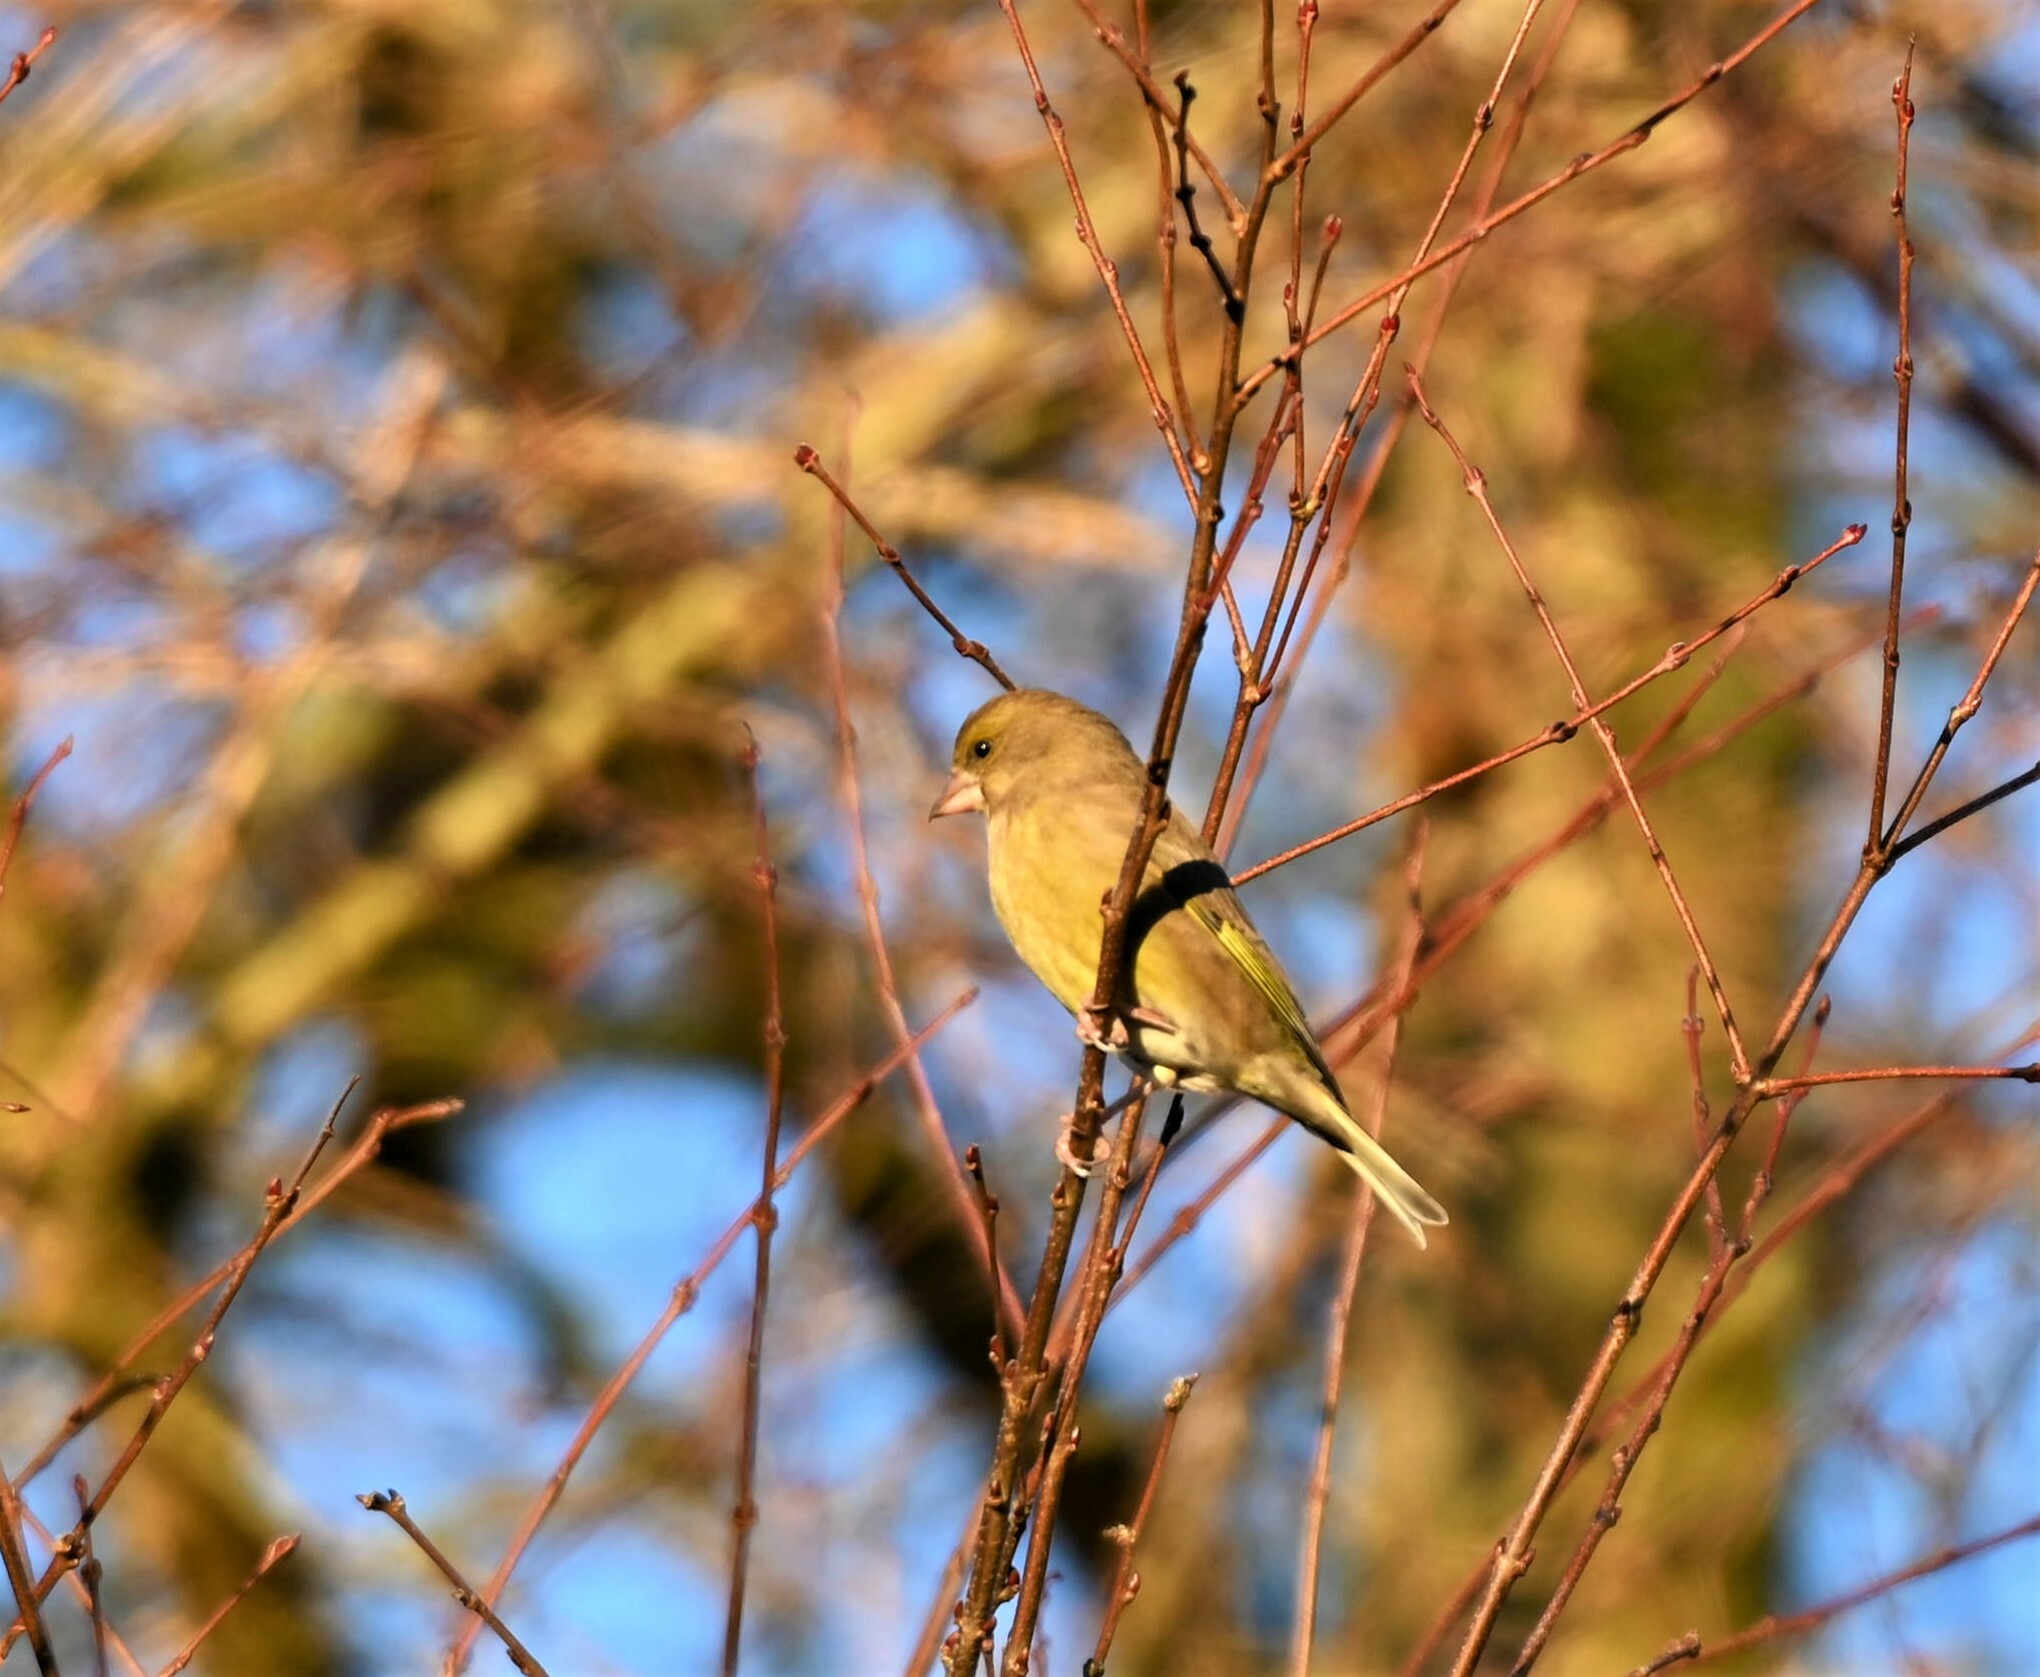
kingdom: Plantae
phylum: Tracheophyta
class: Liliopsida
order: Poales
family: Poaceae
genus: Chloris
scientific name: Chloris chloris
